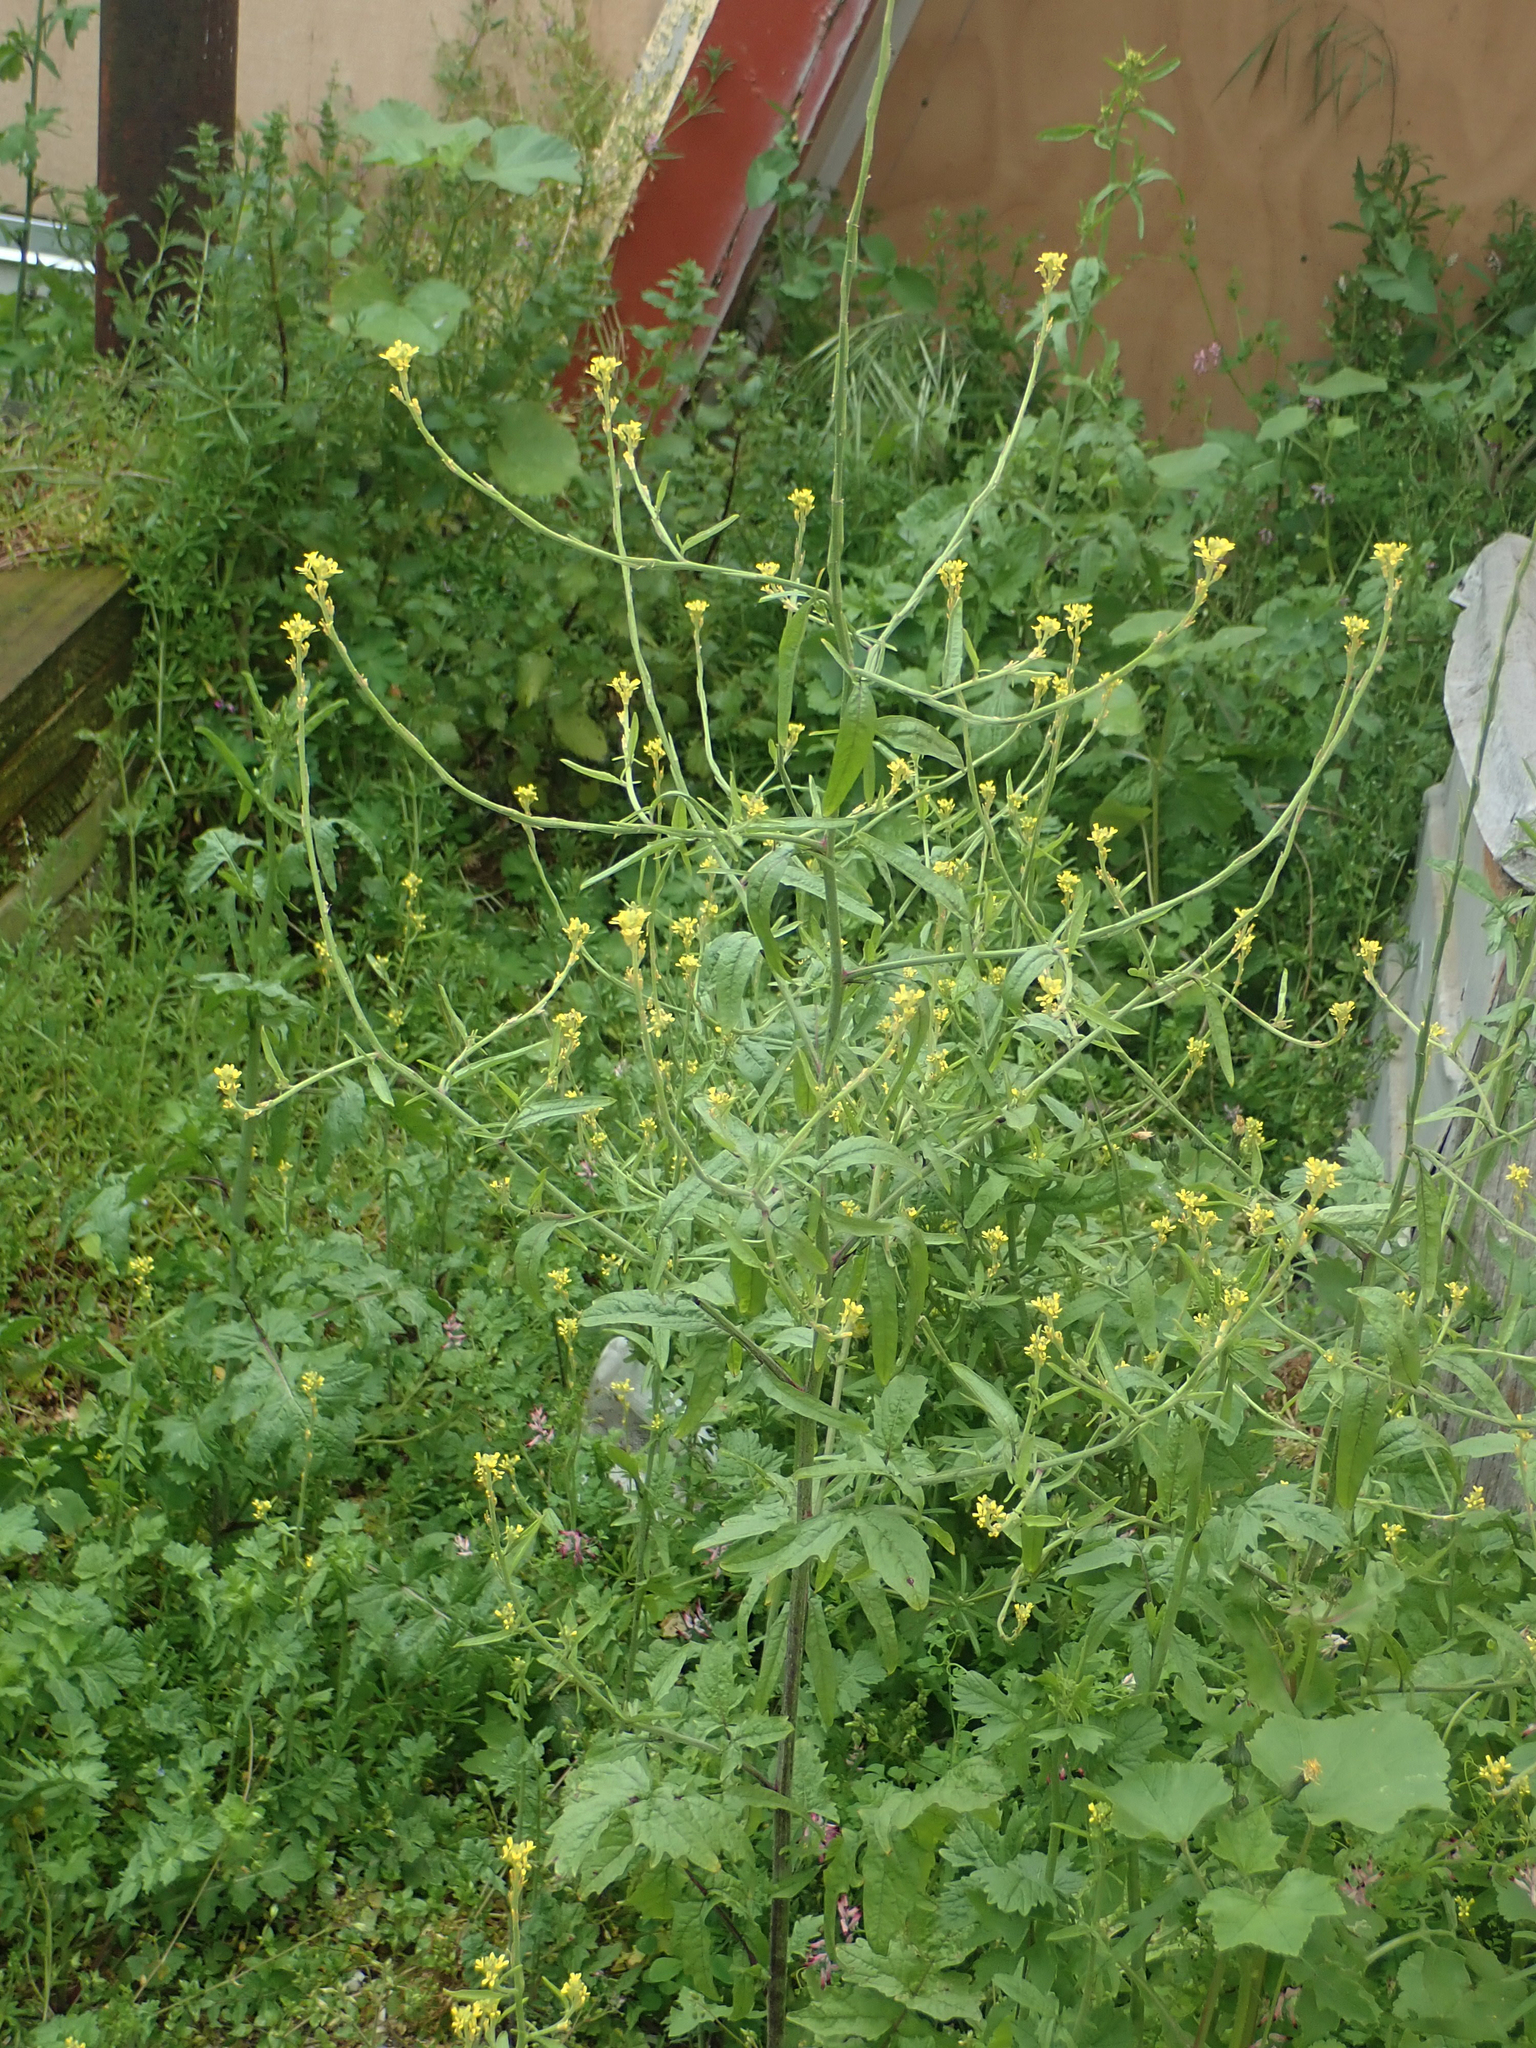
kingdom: Plantae
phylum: Tracheophyta
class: Magnoliopsida
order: Brassicales
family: Brassicaceae
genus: Sisymbrium
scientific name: Sisymbrium officinale
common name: Hedge mustard
